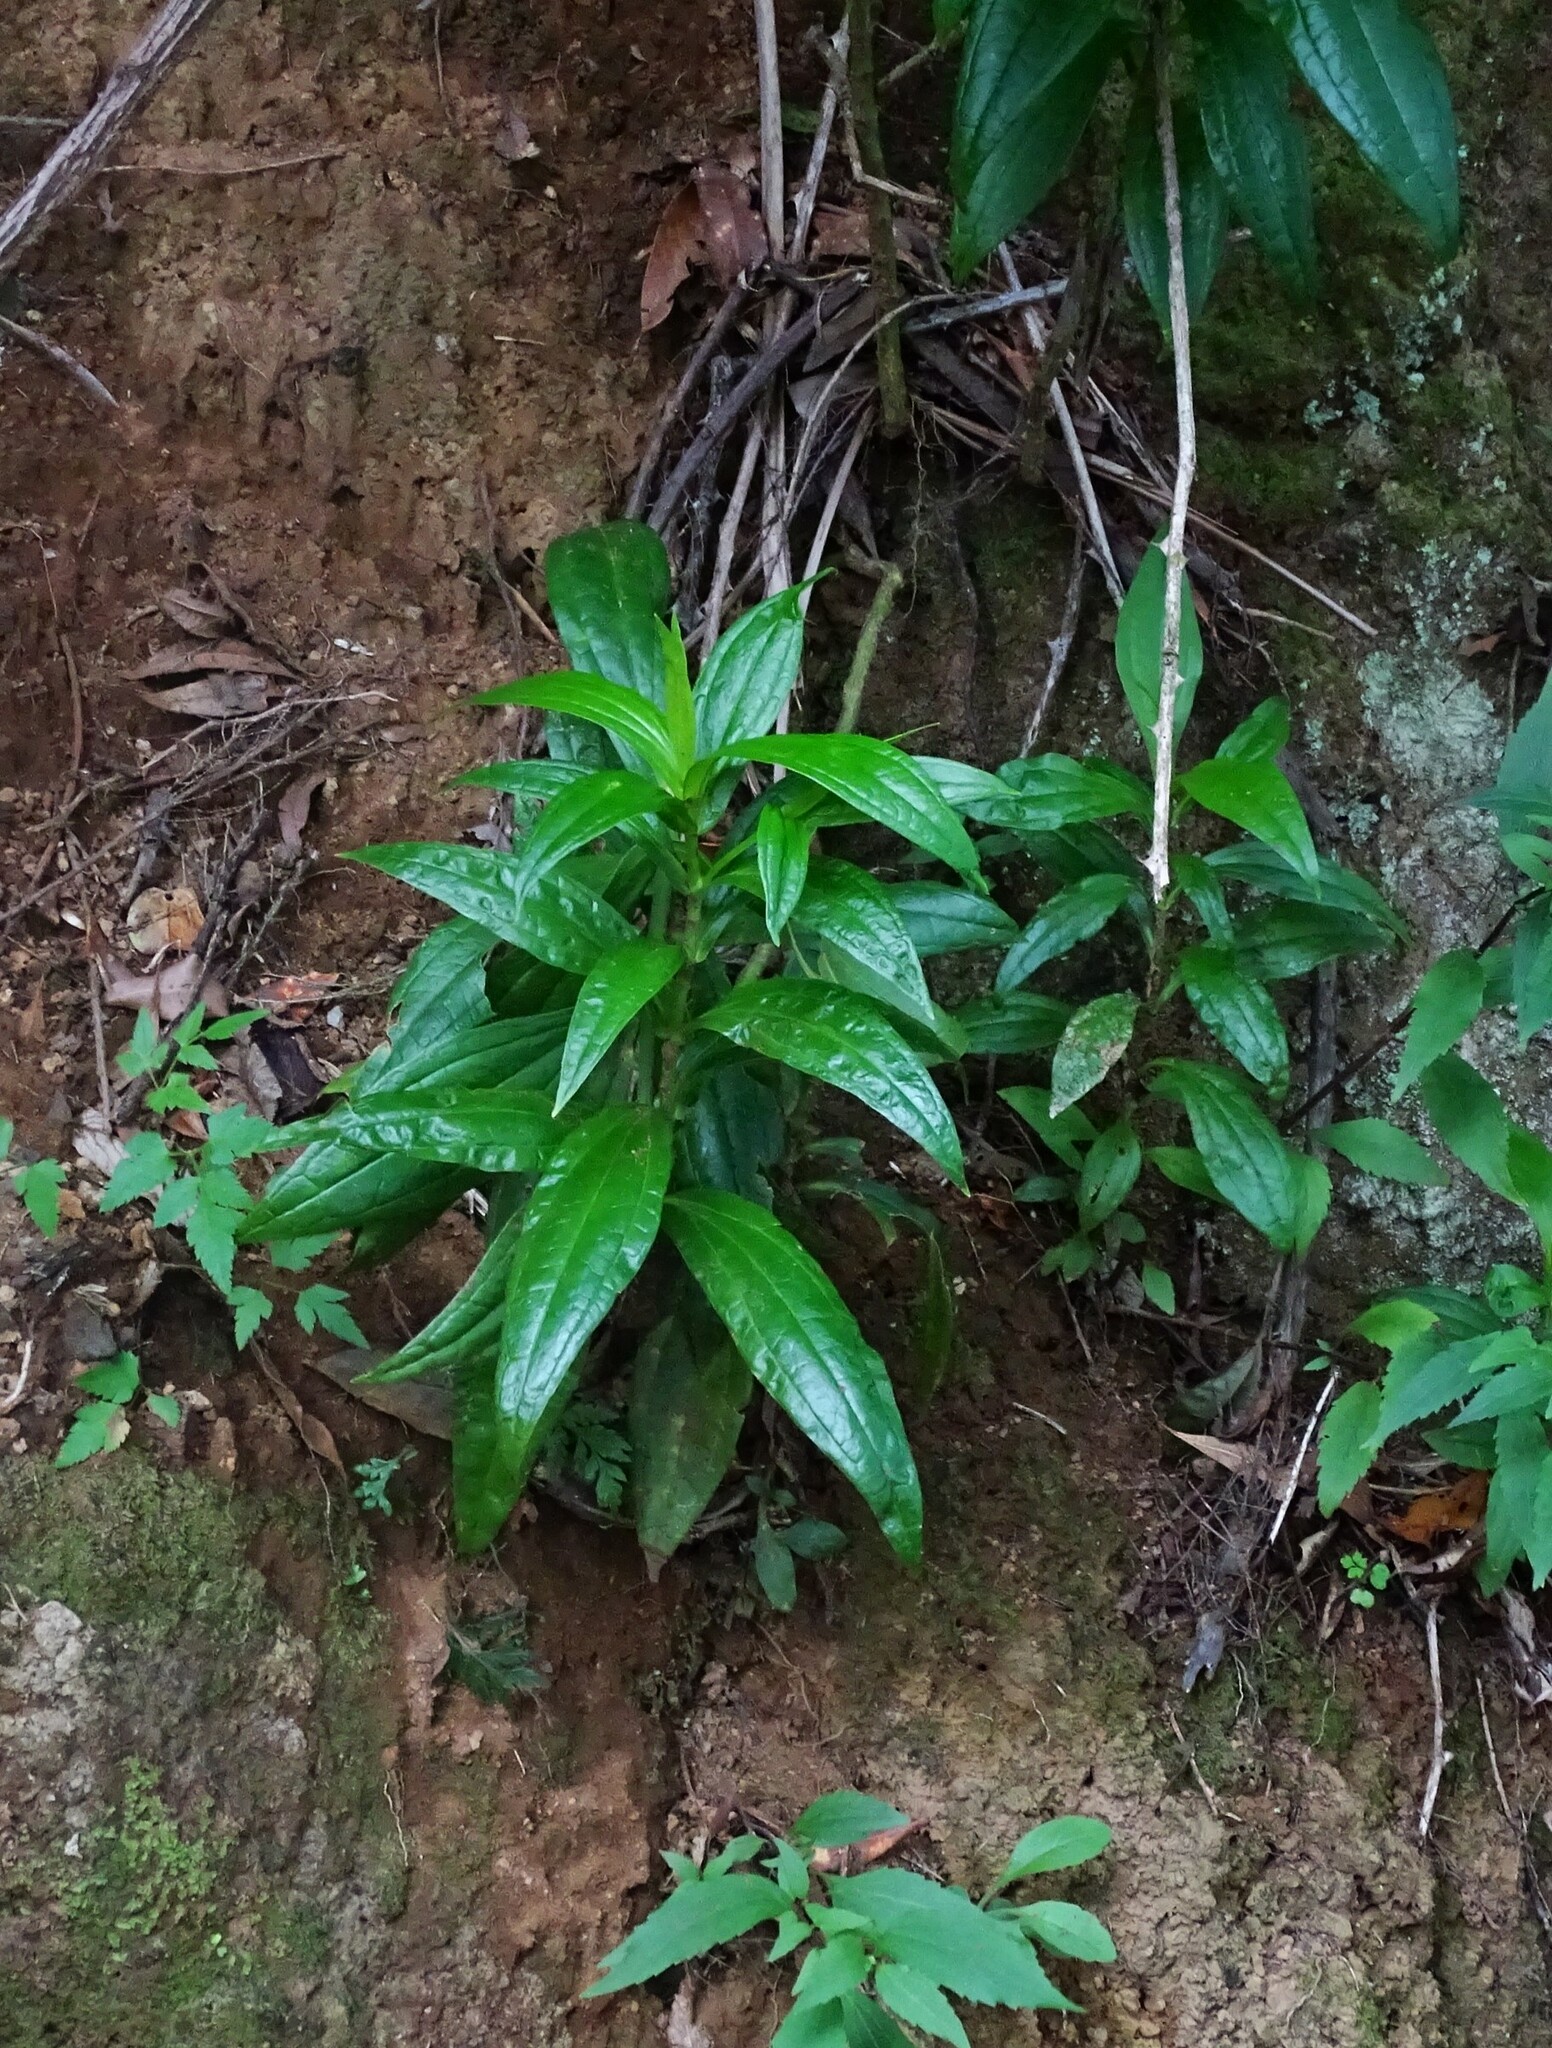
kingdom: Plantae
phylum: Tracheophyta
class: Magnoliopsida
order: Gentianales
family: Gentianaceae
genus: Ixanthus
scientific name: Ixanthus viscosus
